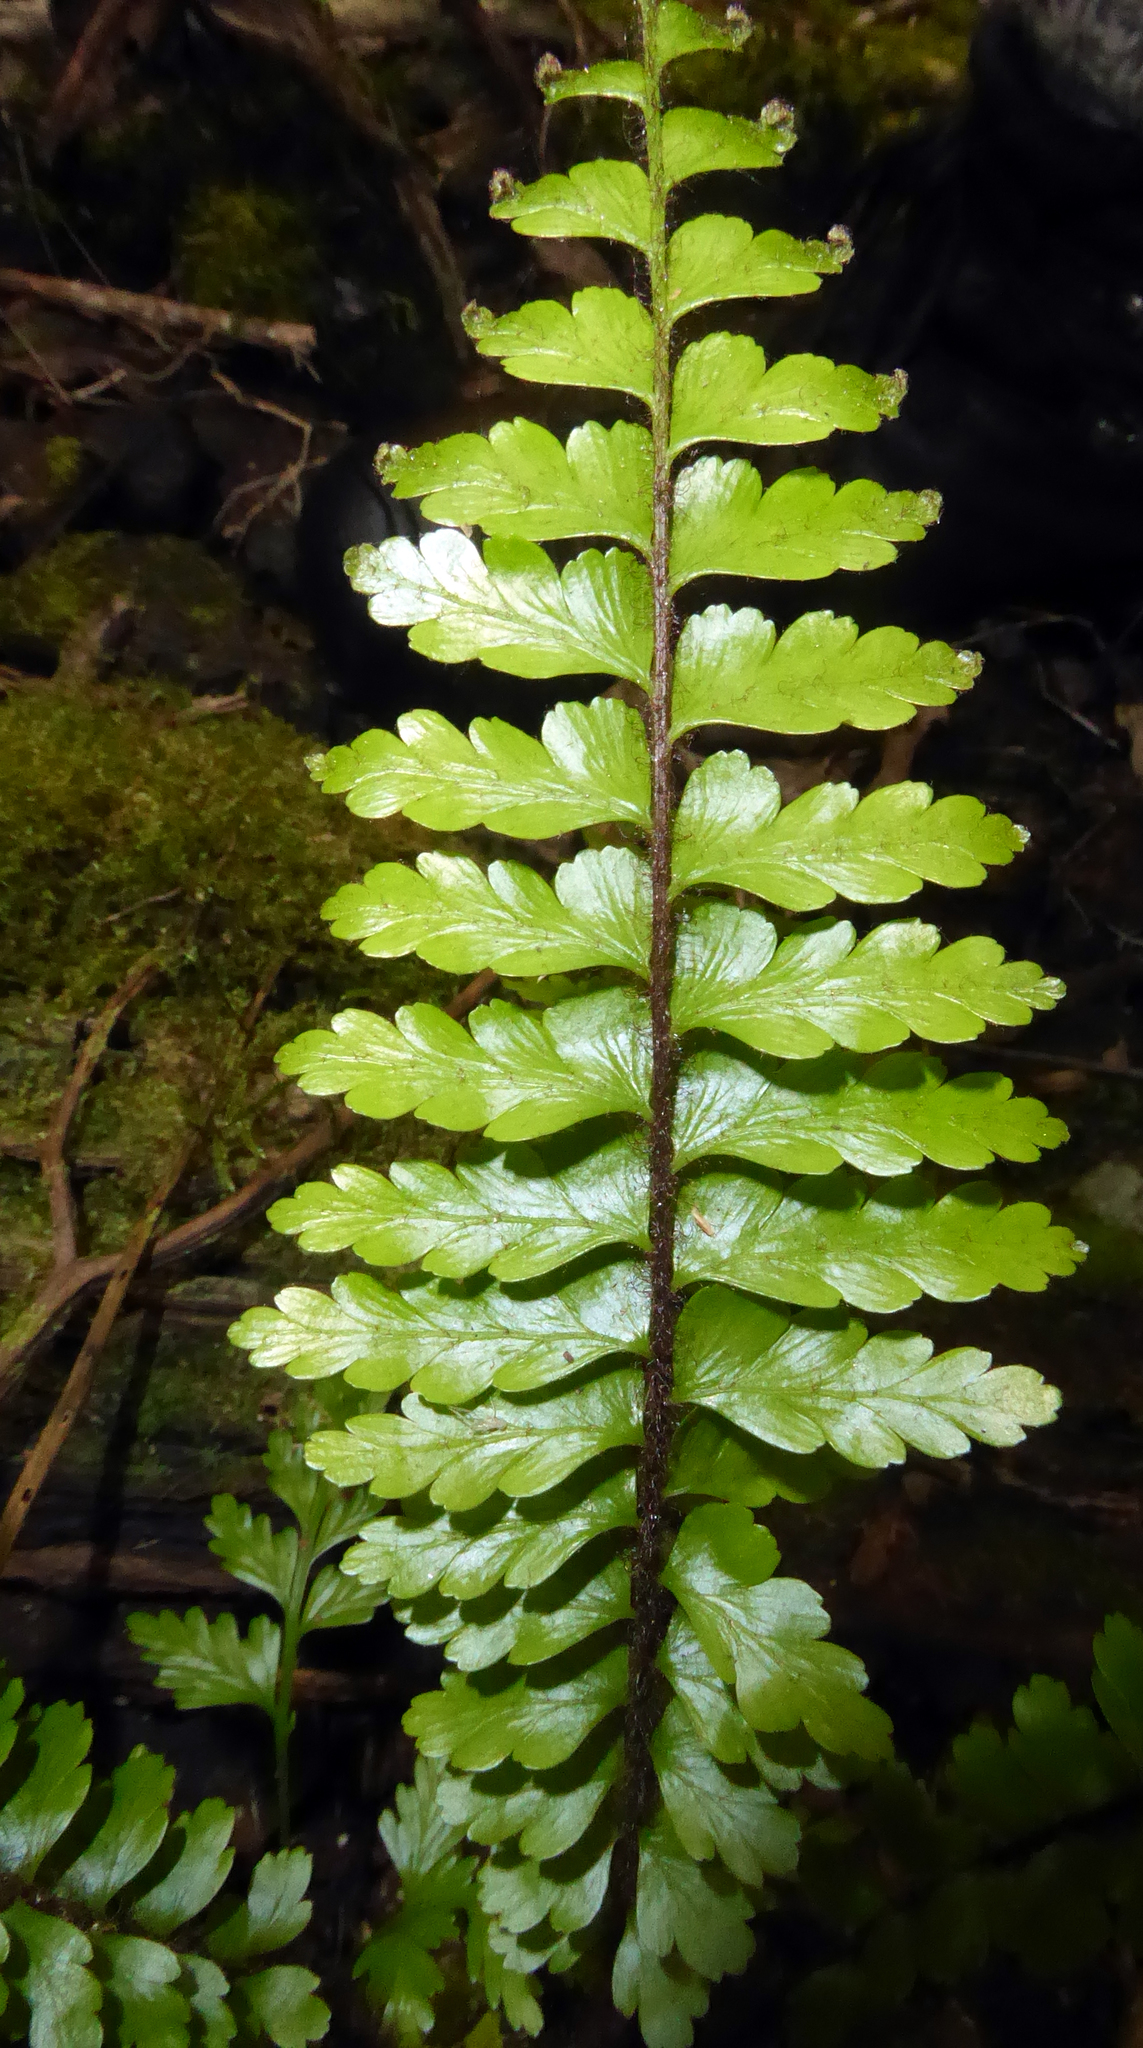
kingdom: Plantae
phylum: Tracheophyta
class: Polypodiopsida
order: Polypodiales
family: Aspleniaceae
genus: Asplenium
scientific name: Asplenium caudatum
